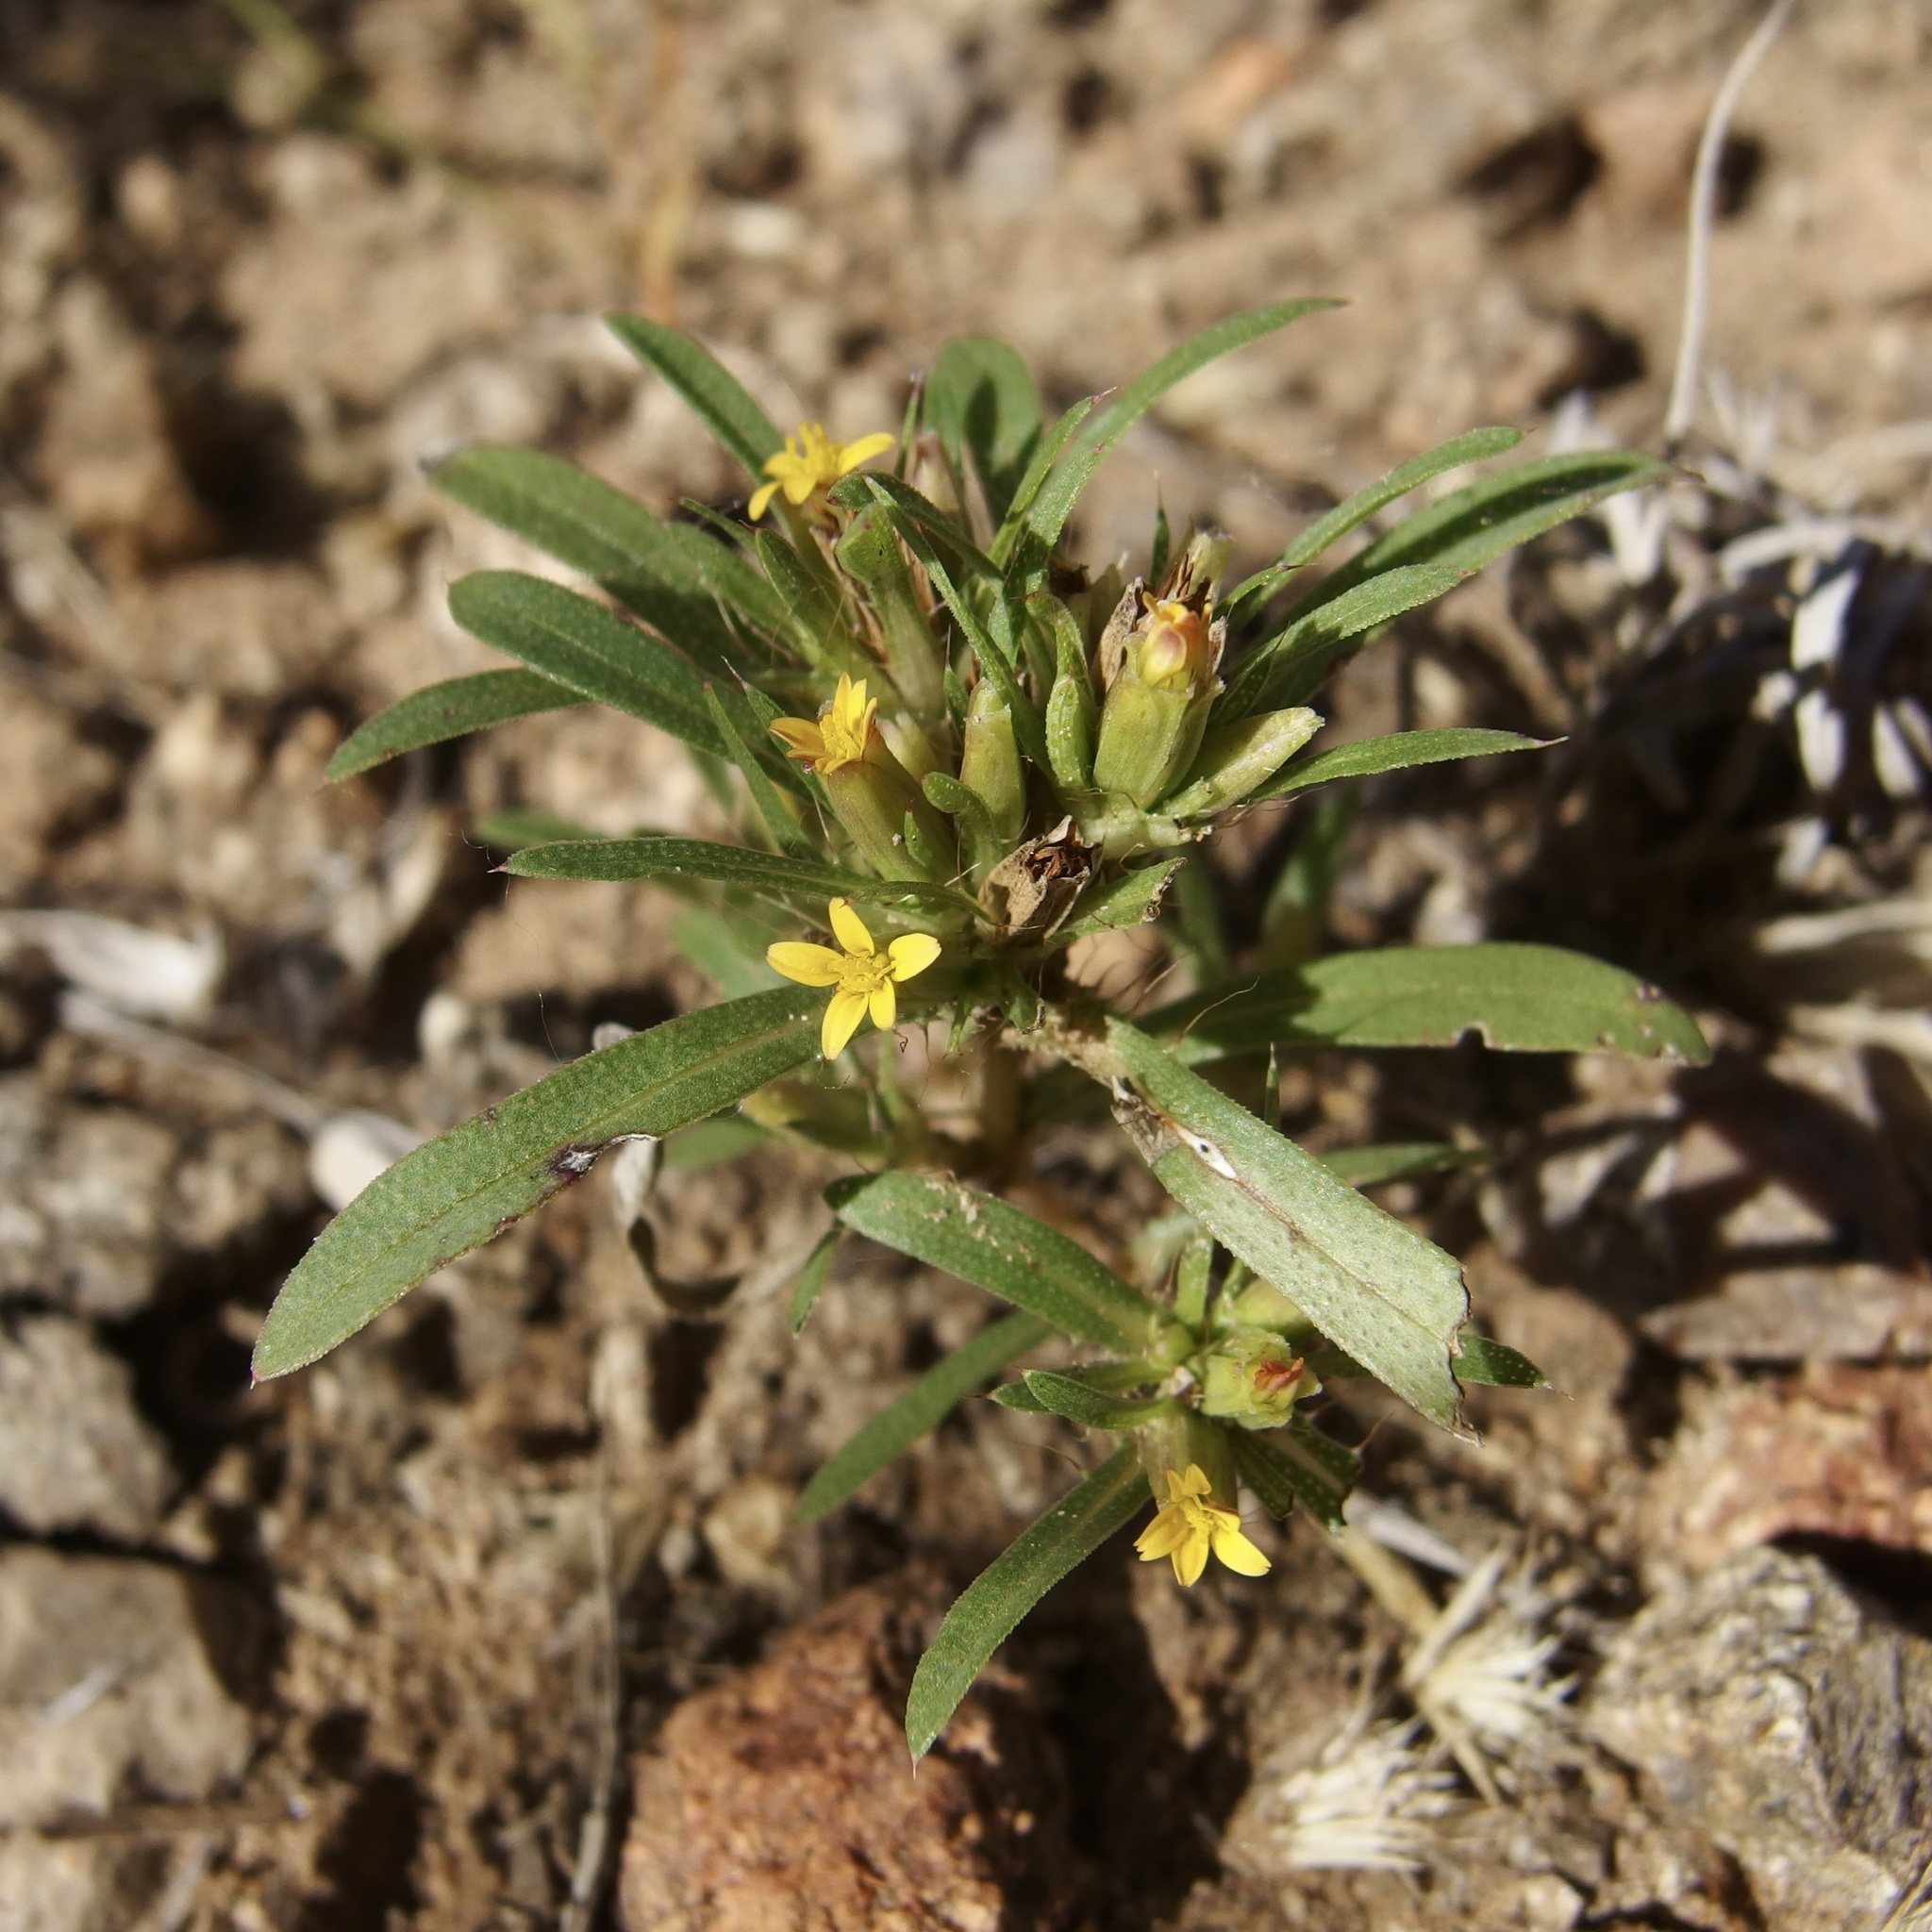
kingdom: Plantae
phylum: Tracheophyta
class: Magnoliopsida
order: Asterales
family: Asteraceae
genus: Pectis
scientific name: Pectis prostrata
